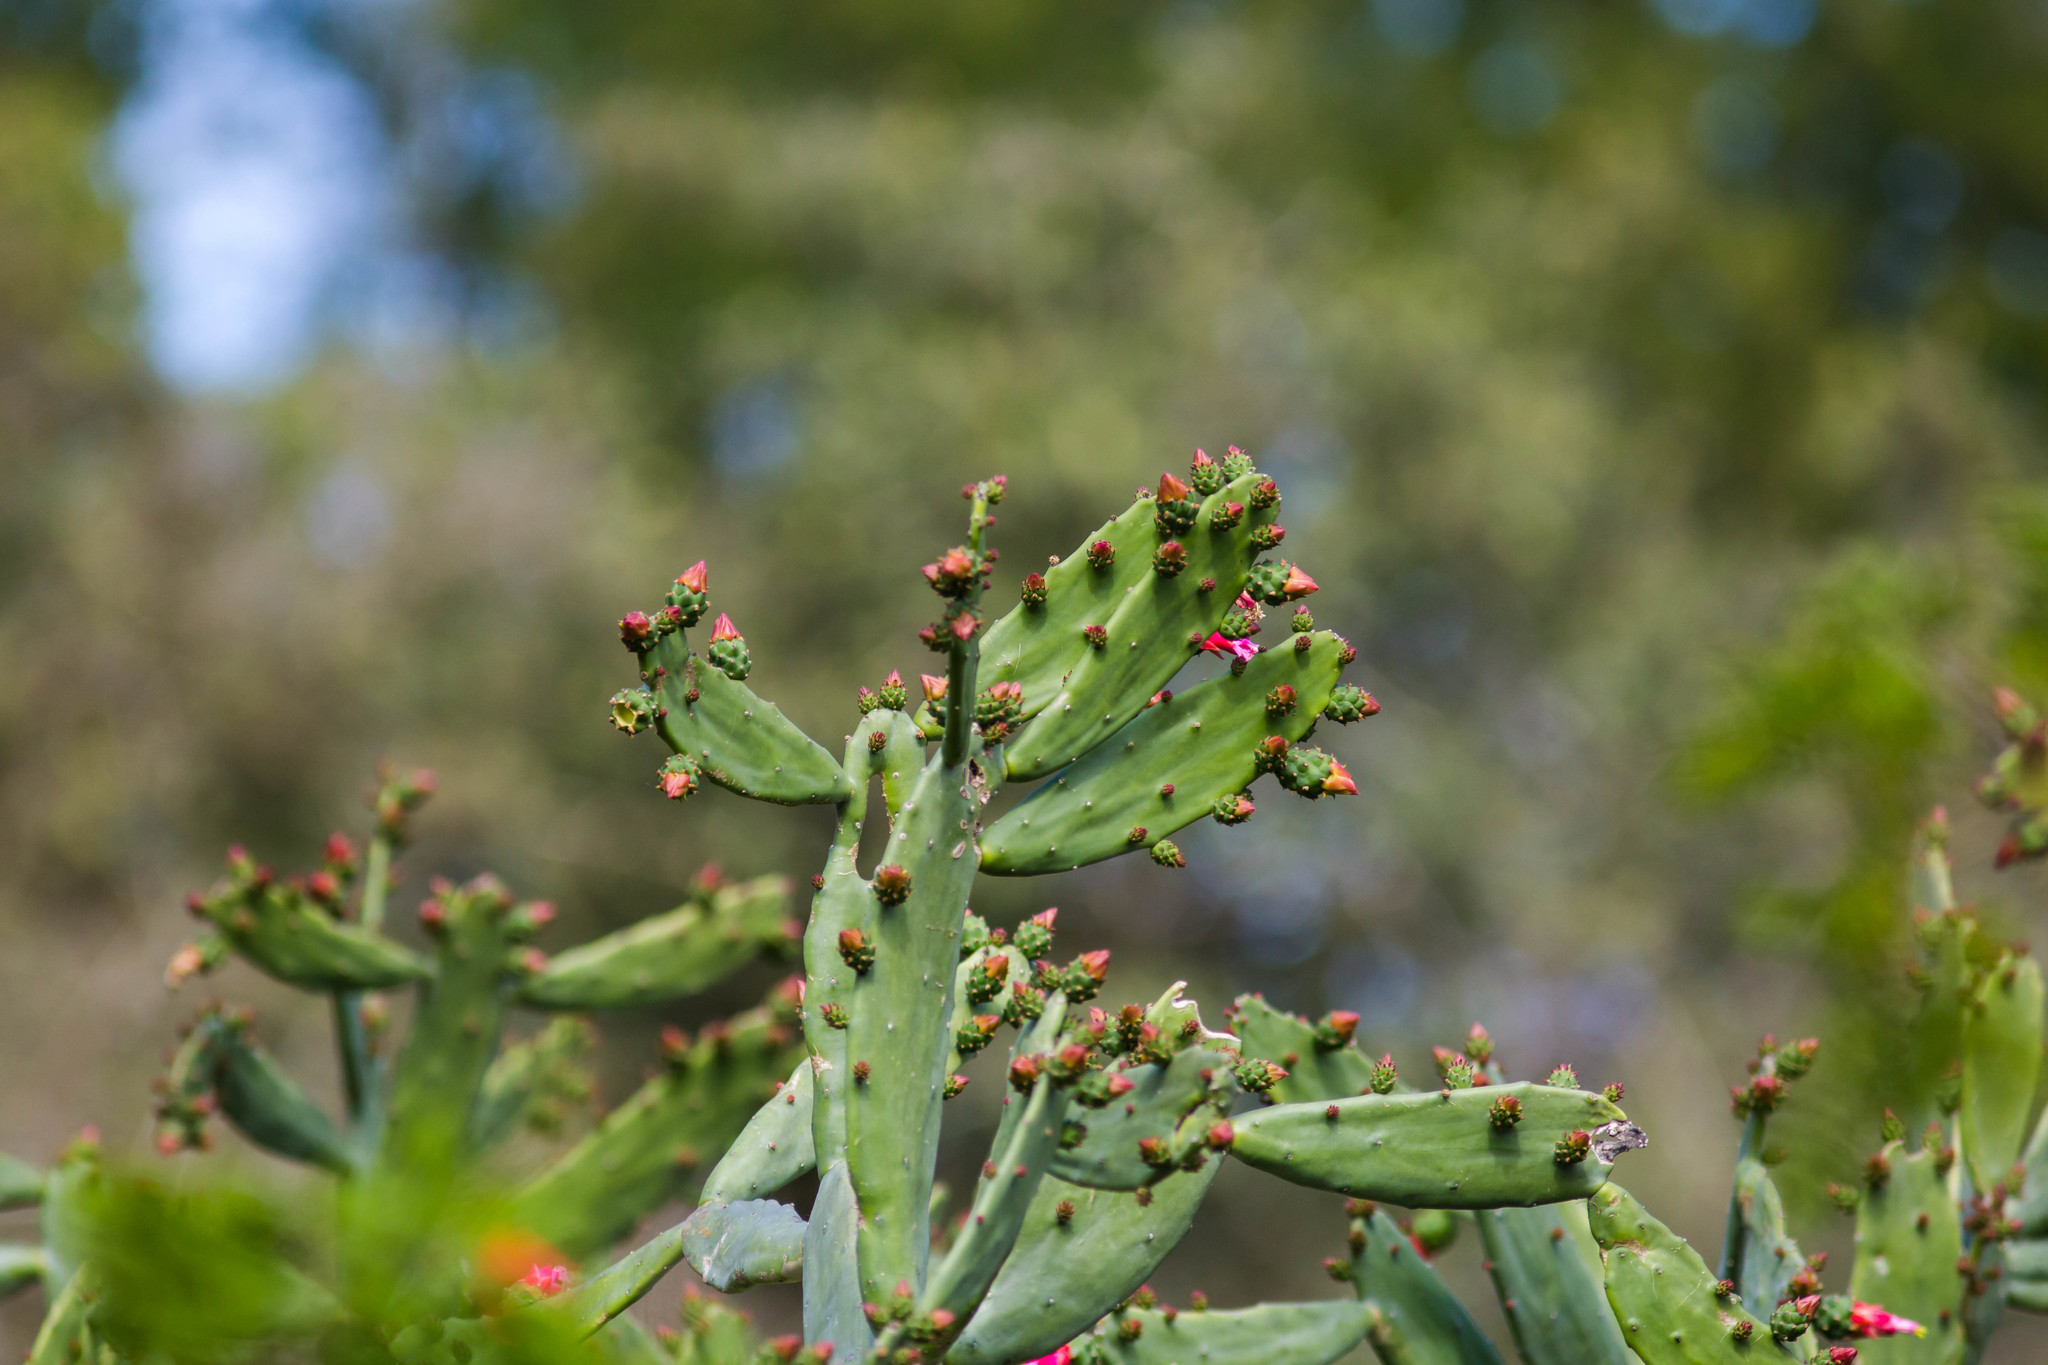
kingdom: Plantae
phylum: Tracheophyta
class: Magnoliopsida
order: Caryophyllales
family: Cactaceae
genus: Opuntia
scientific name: Opuntia cochenillifera
